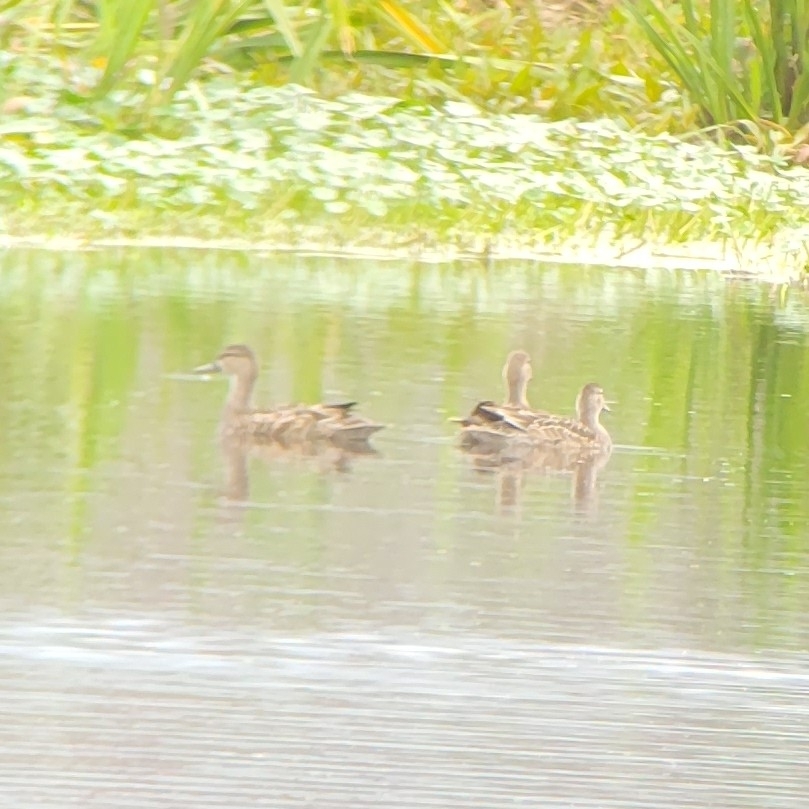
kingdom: Animalia
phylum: Chordata
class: Aves
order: Anseriformes
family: Anatidae
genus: Spatula
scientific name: Spatula discors
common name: Blue-winged teal
